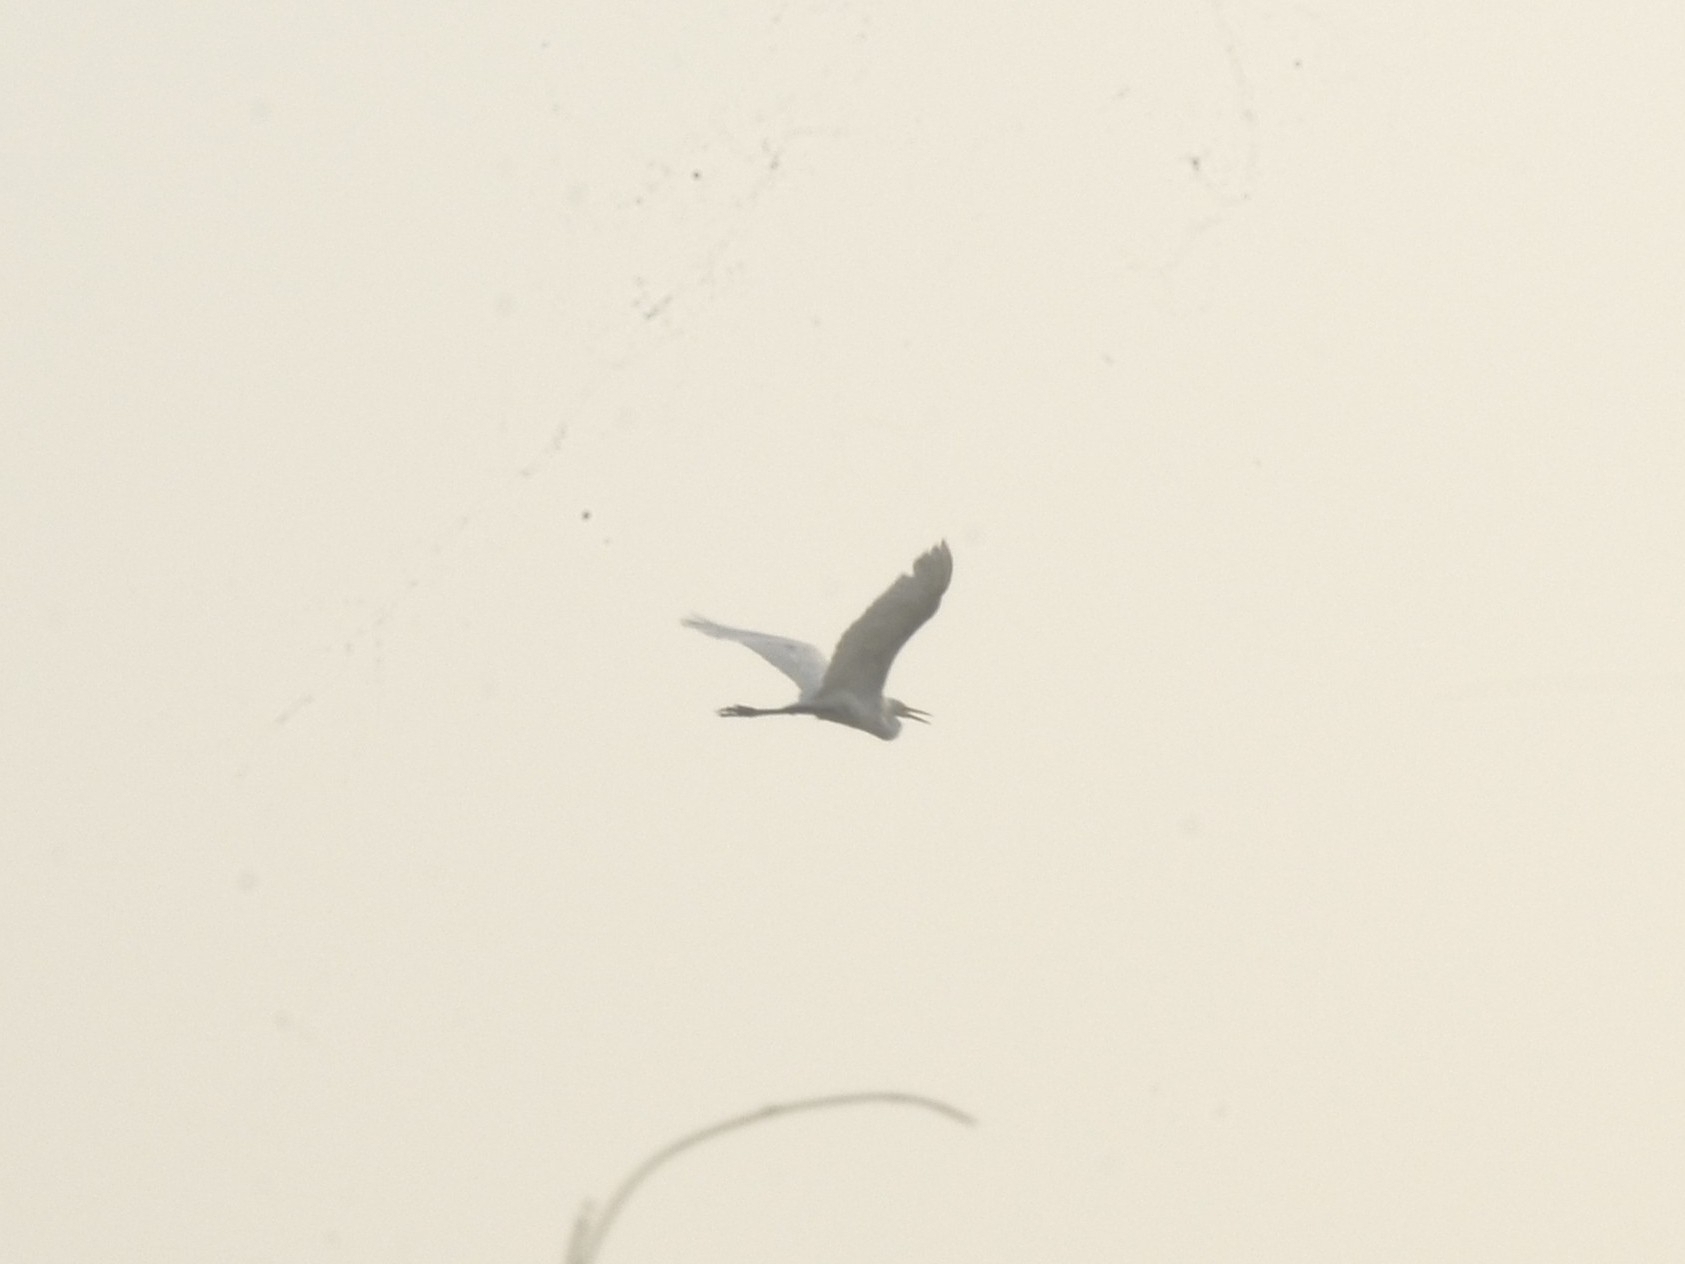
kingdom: Animalia
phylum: Chordata
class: Aves
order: Pelecaniformes
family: Ardeidae
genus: Ardea
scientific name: Ardea alba
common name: Great egret
